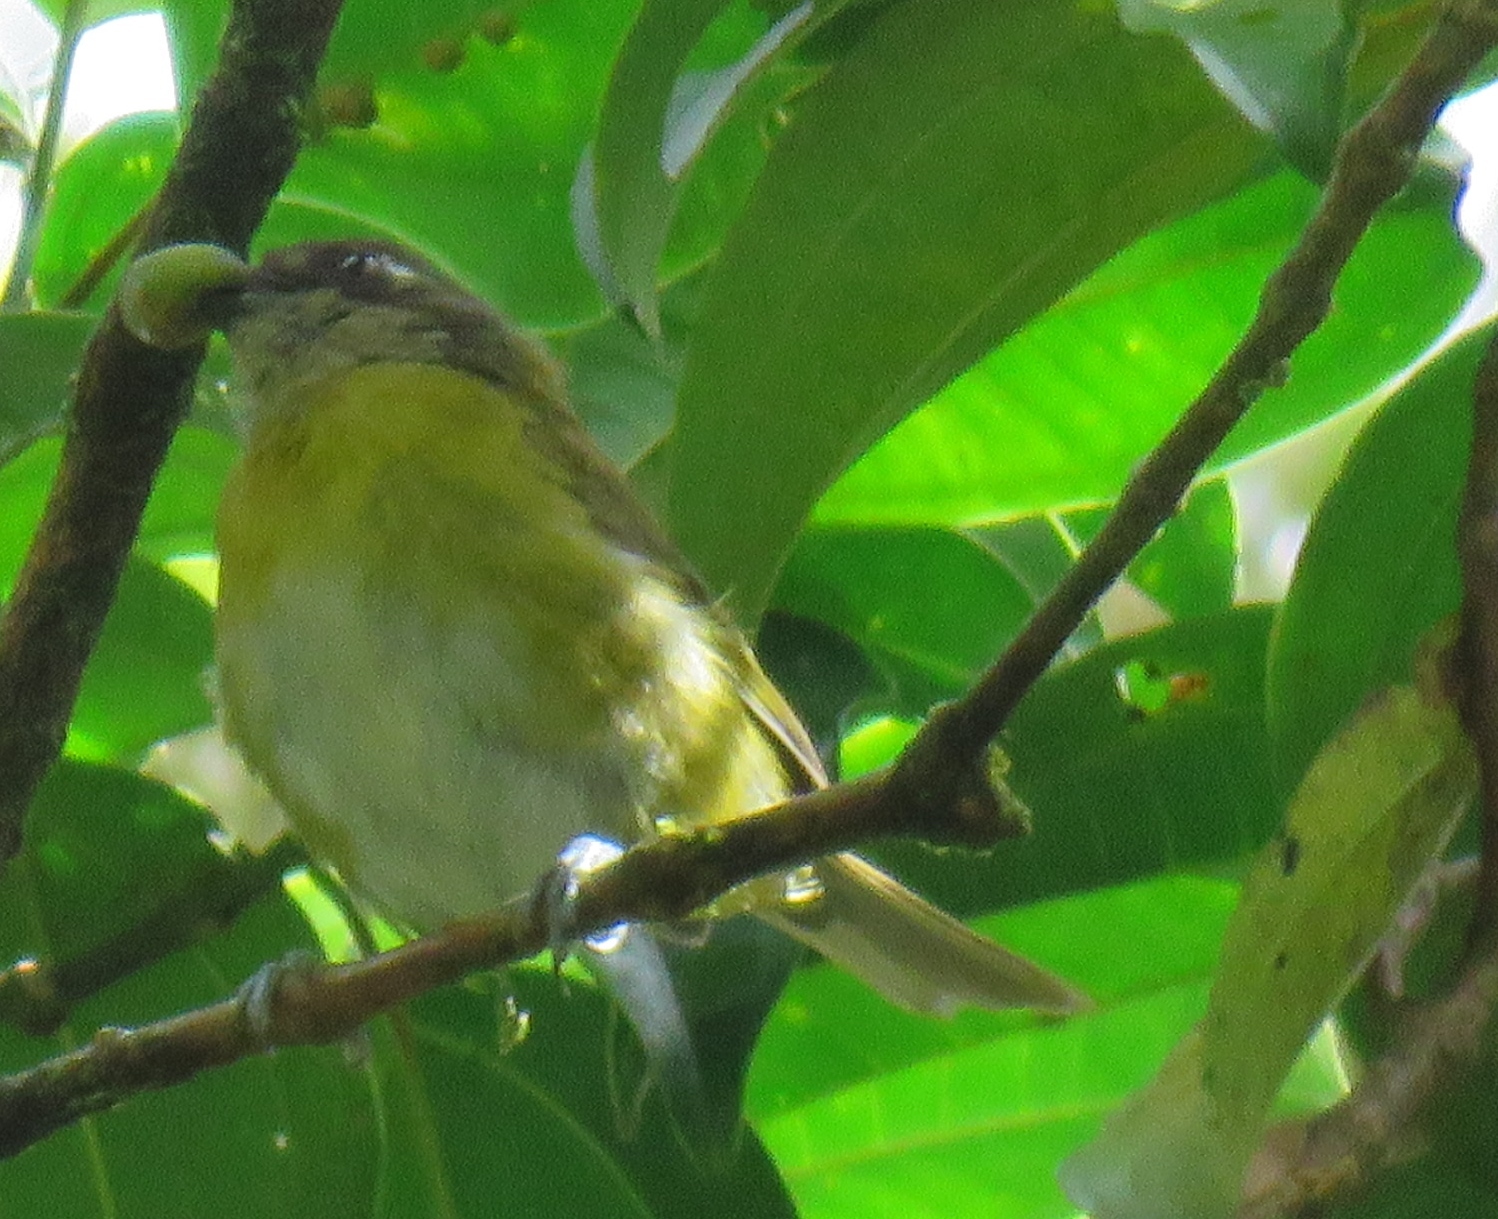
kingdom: Animalia
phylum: Chordata
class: Aves
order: Passeriformes
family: Passerellidae
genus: Chlorospingus
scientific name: Chlorospingus flavopectus
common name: Common chlorospingus
